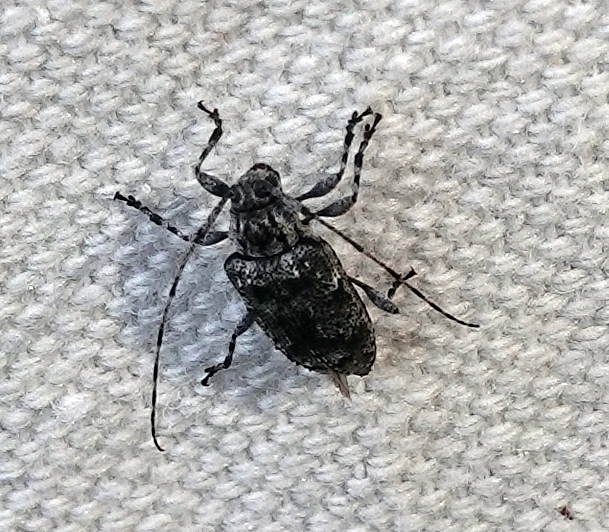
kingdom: Animalia
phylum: Arthropoda
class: Insecta
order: Coleoptera
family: Cerambycidae
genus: Astylopsis
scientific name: Astylopsis sexguttata
